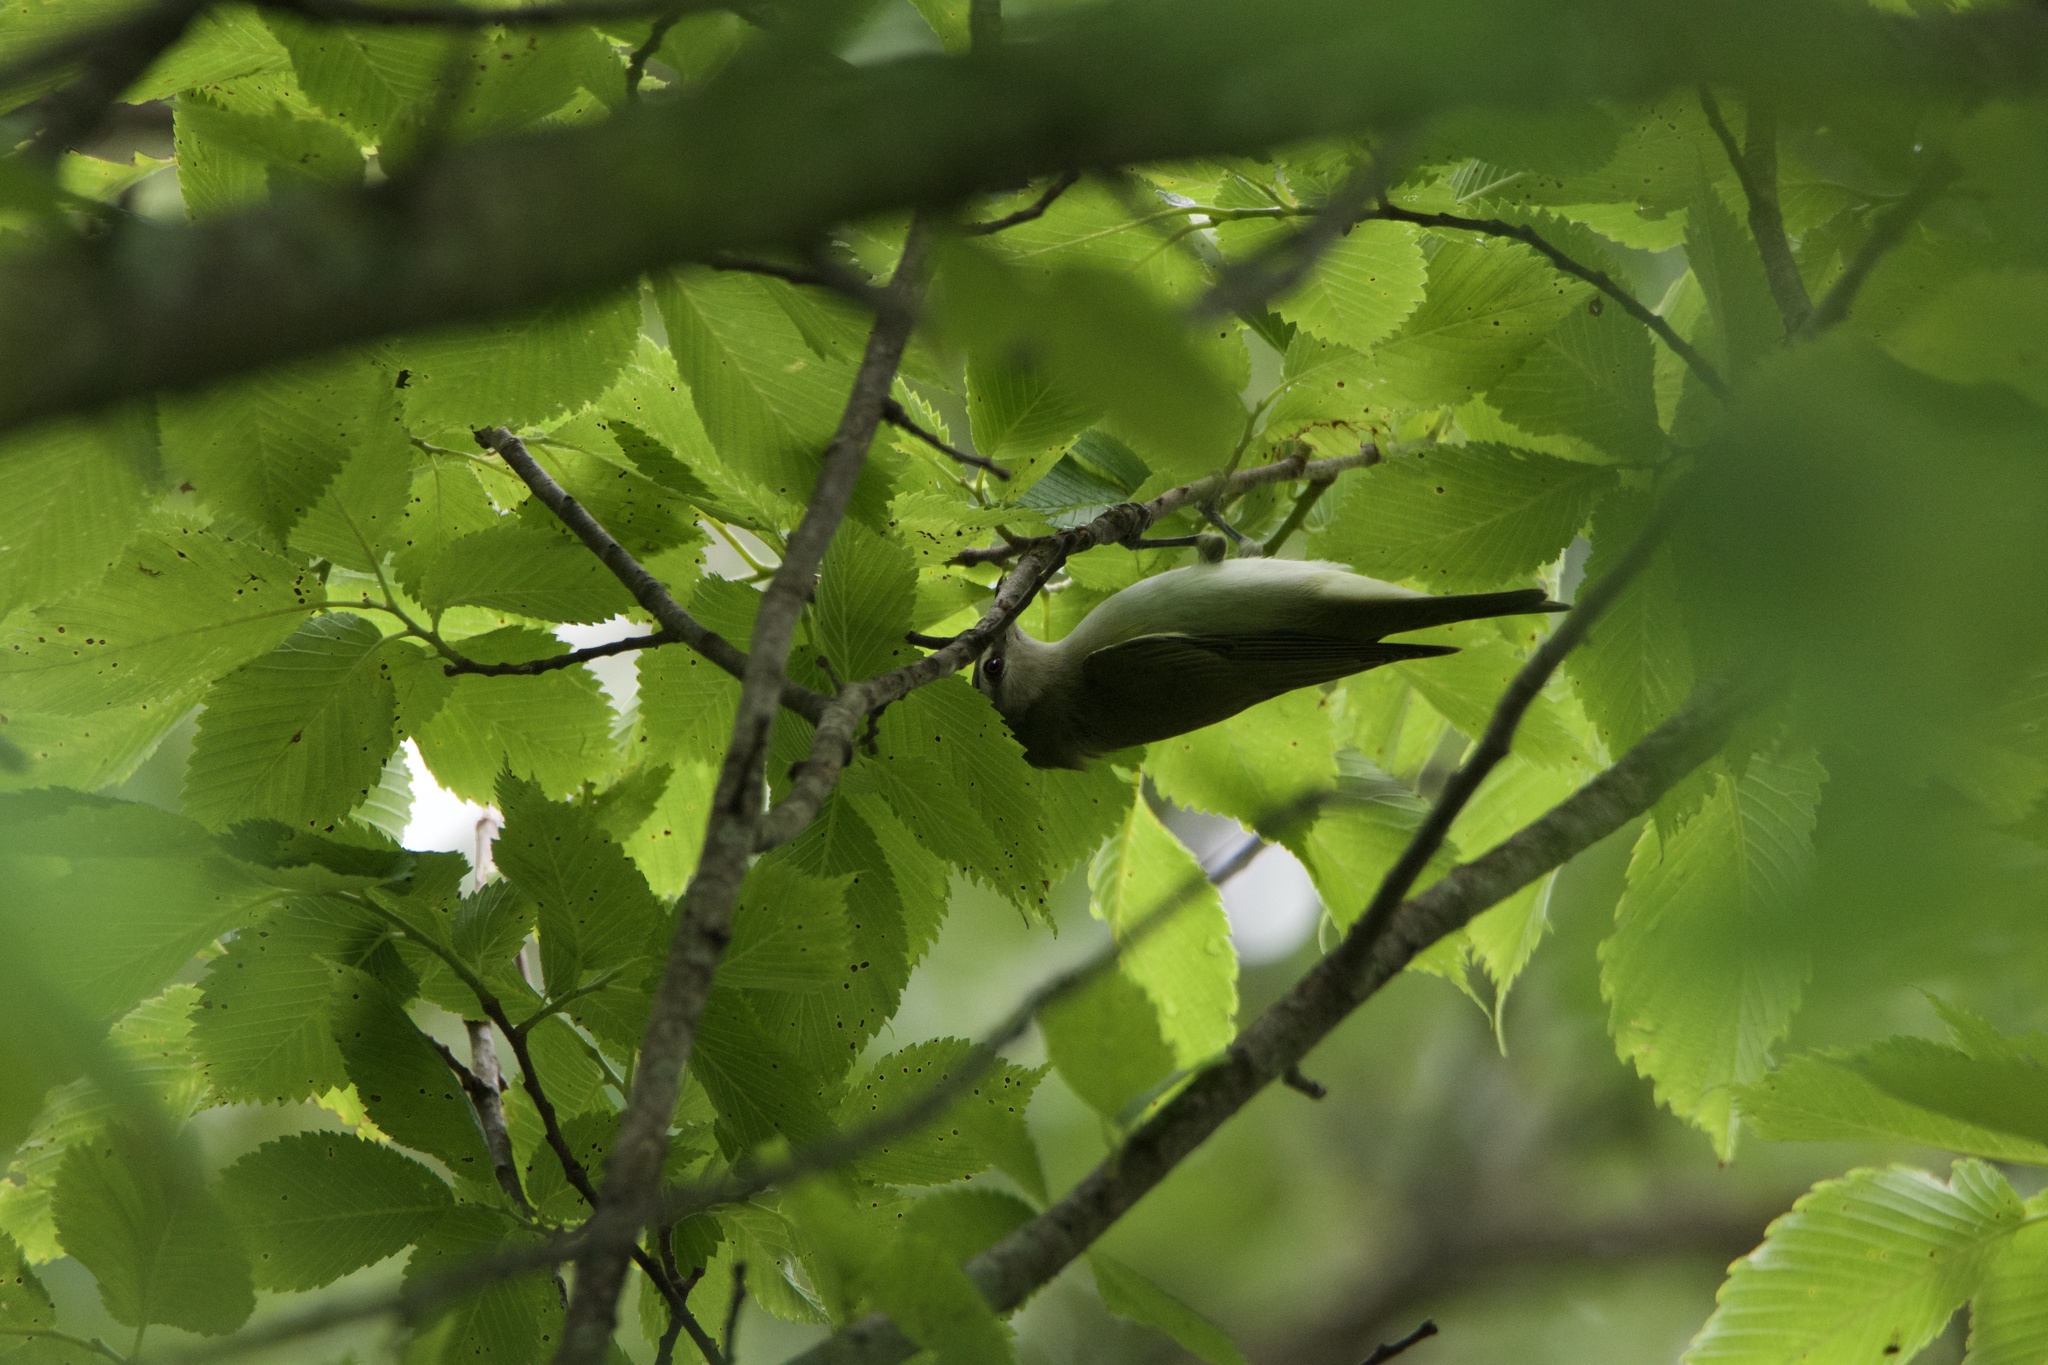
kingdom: Animalia
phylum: Chordata
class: Aves
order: Passeriformes
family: Vireonidae
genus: Vireo
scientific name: Vireo olivaceus
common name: Red-eyed vireo
